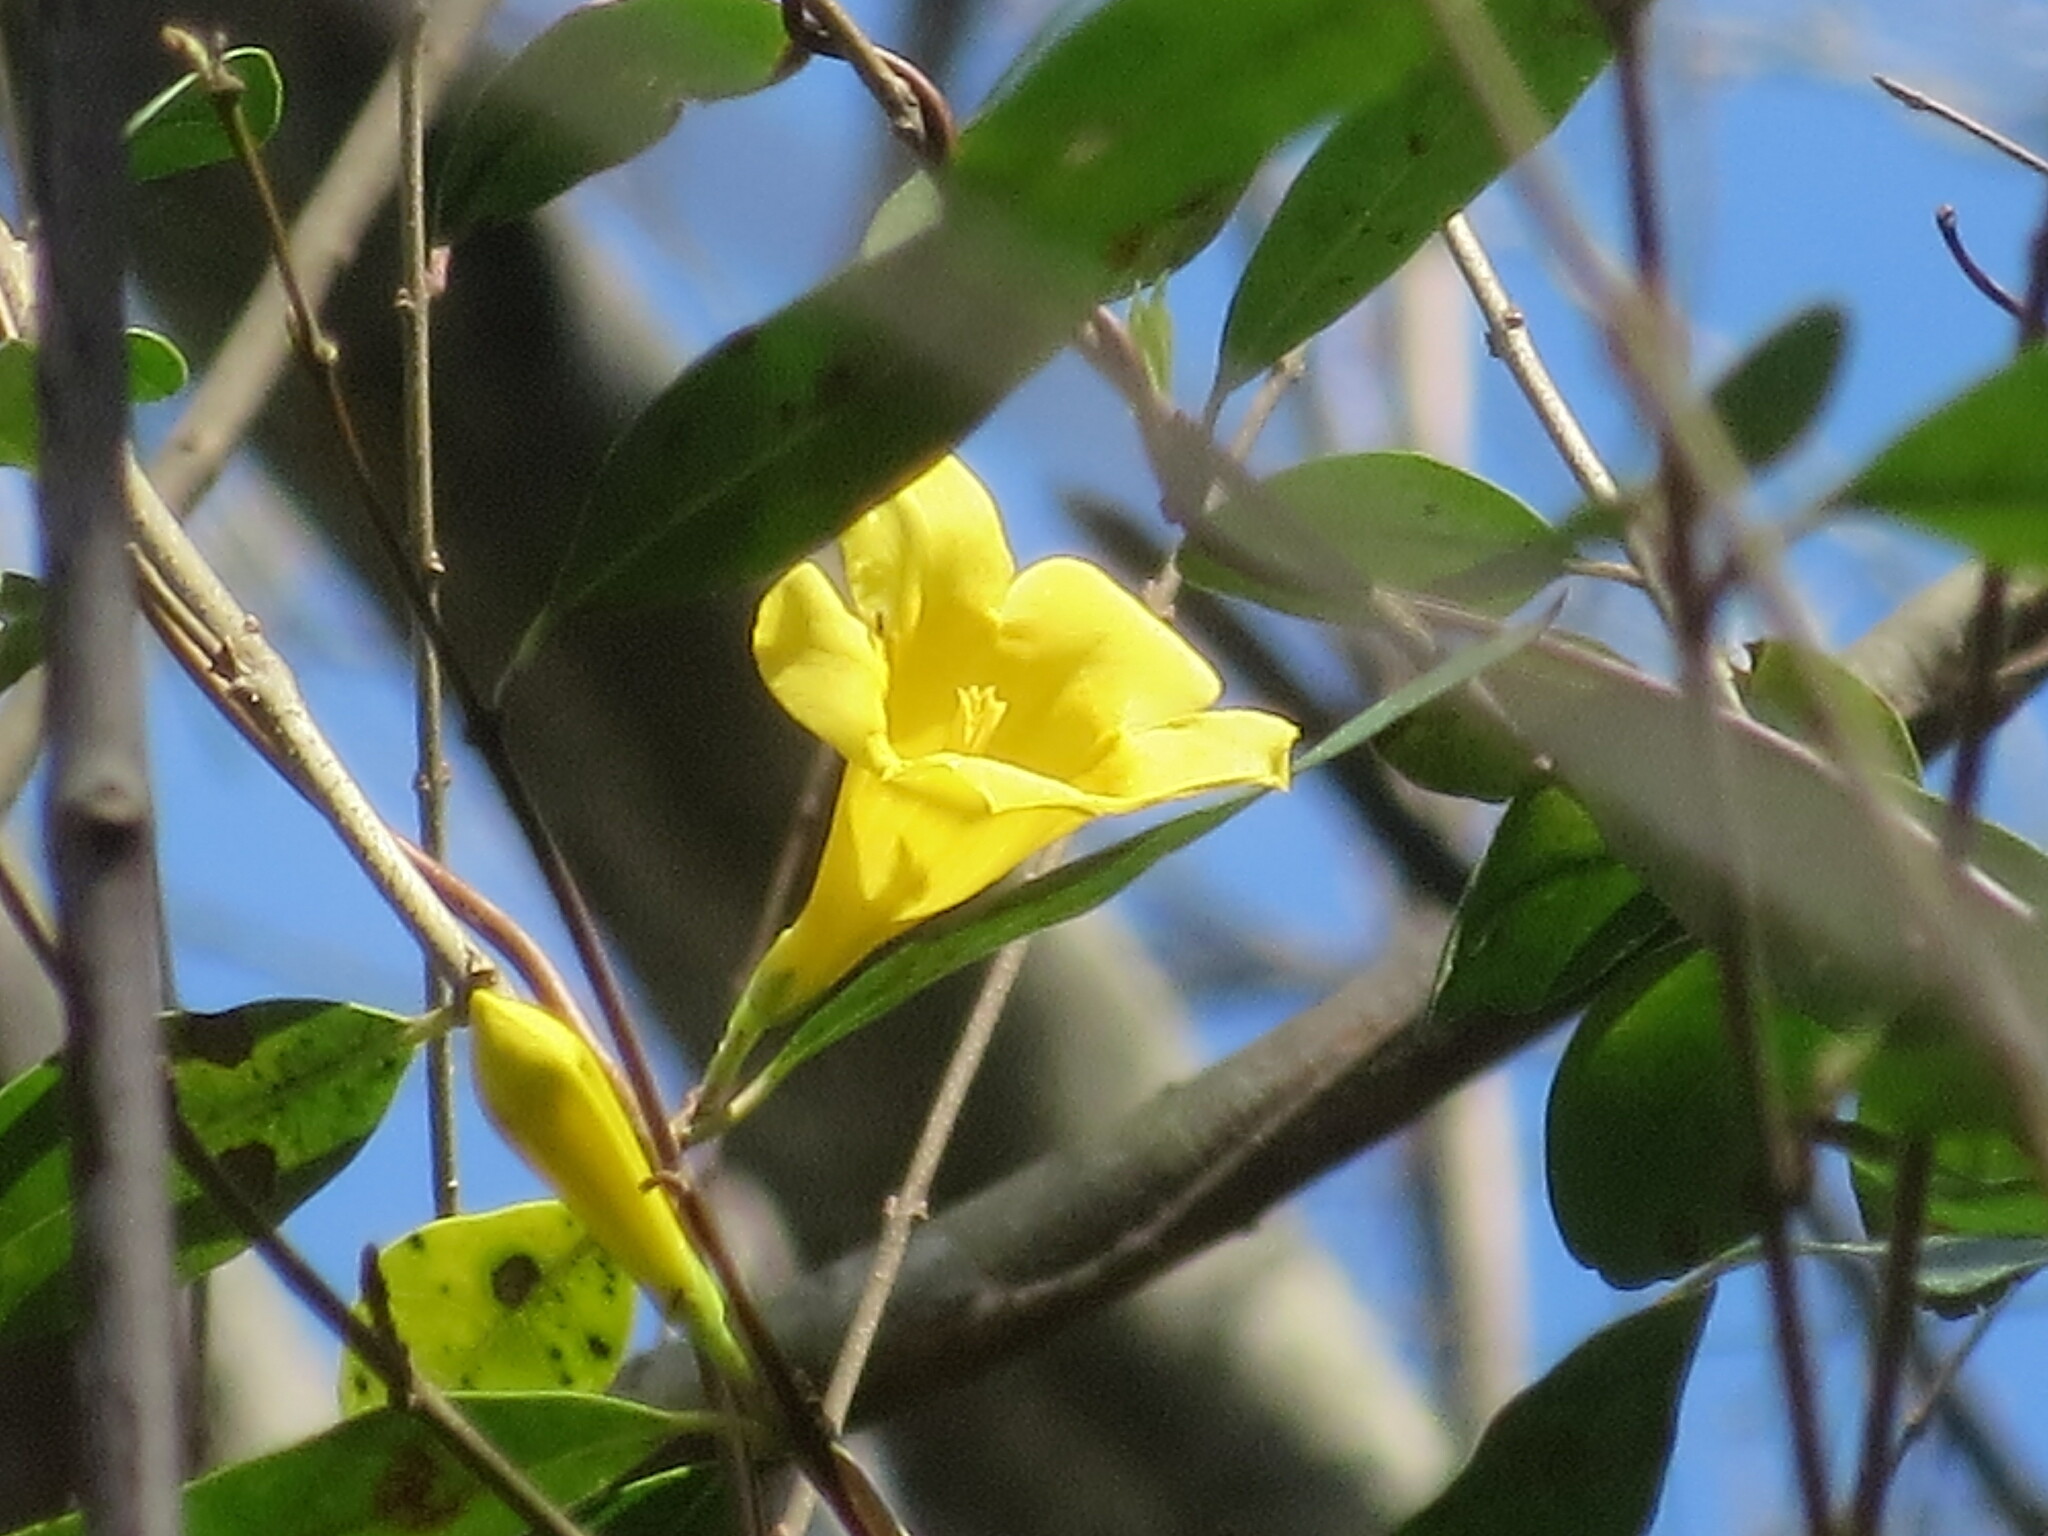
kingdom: Plantae
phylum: Tracheophyta
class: Magnoliopsida
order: Gentianales
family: Gelsemiaceae
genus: Gelsemium
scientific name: Gelsemium sempervirens
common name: Carolina-jasmine
